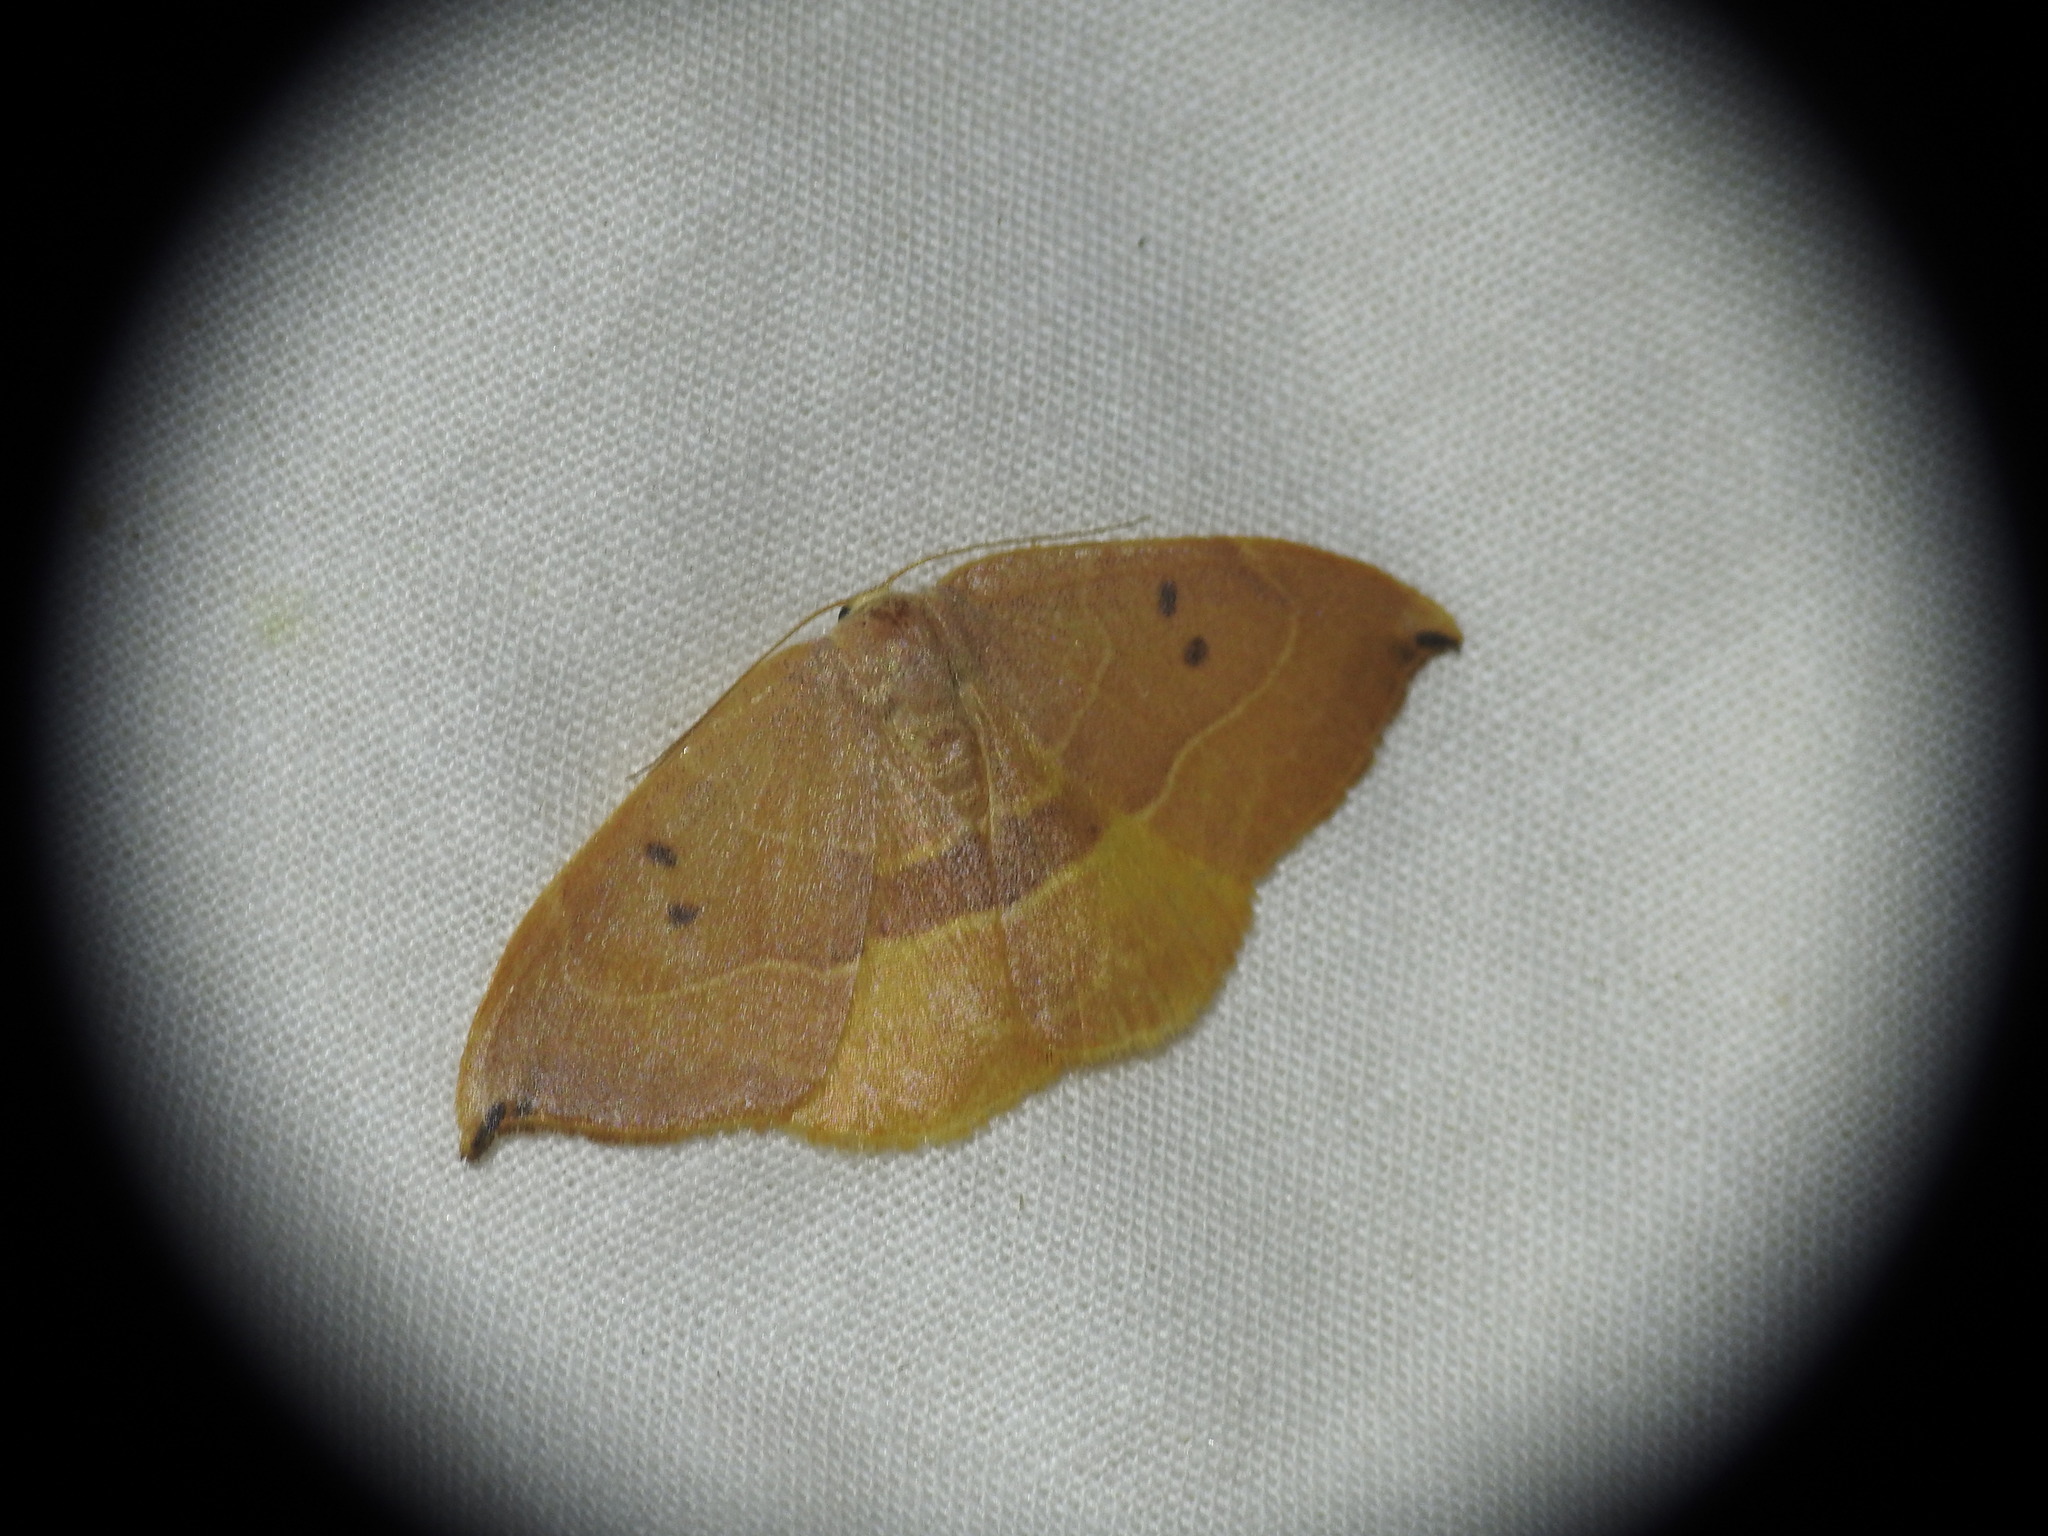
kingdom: Animalia
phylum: Arthropoda
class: Insecta
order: Lepidoptera
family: Drepanidae
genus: Watsonalla
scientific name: Watsonalla uncinula
